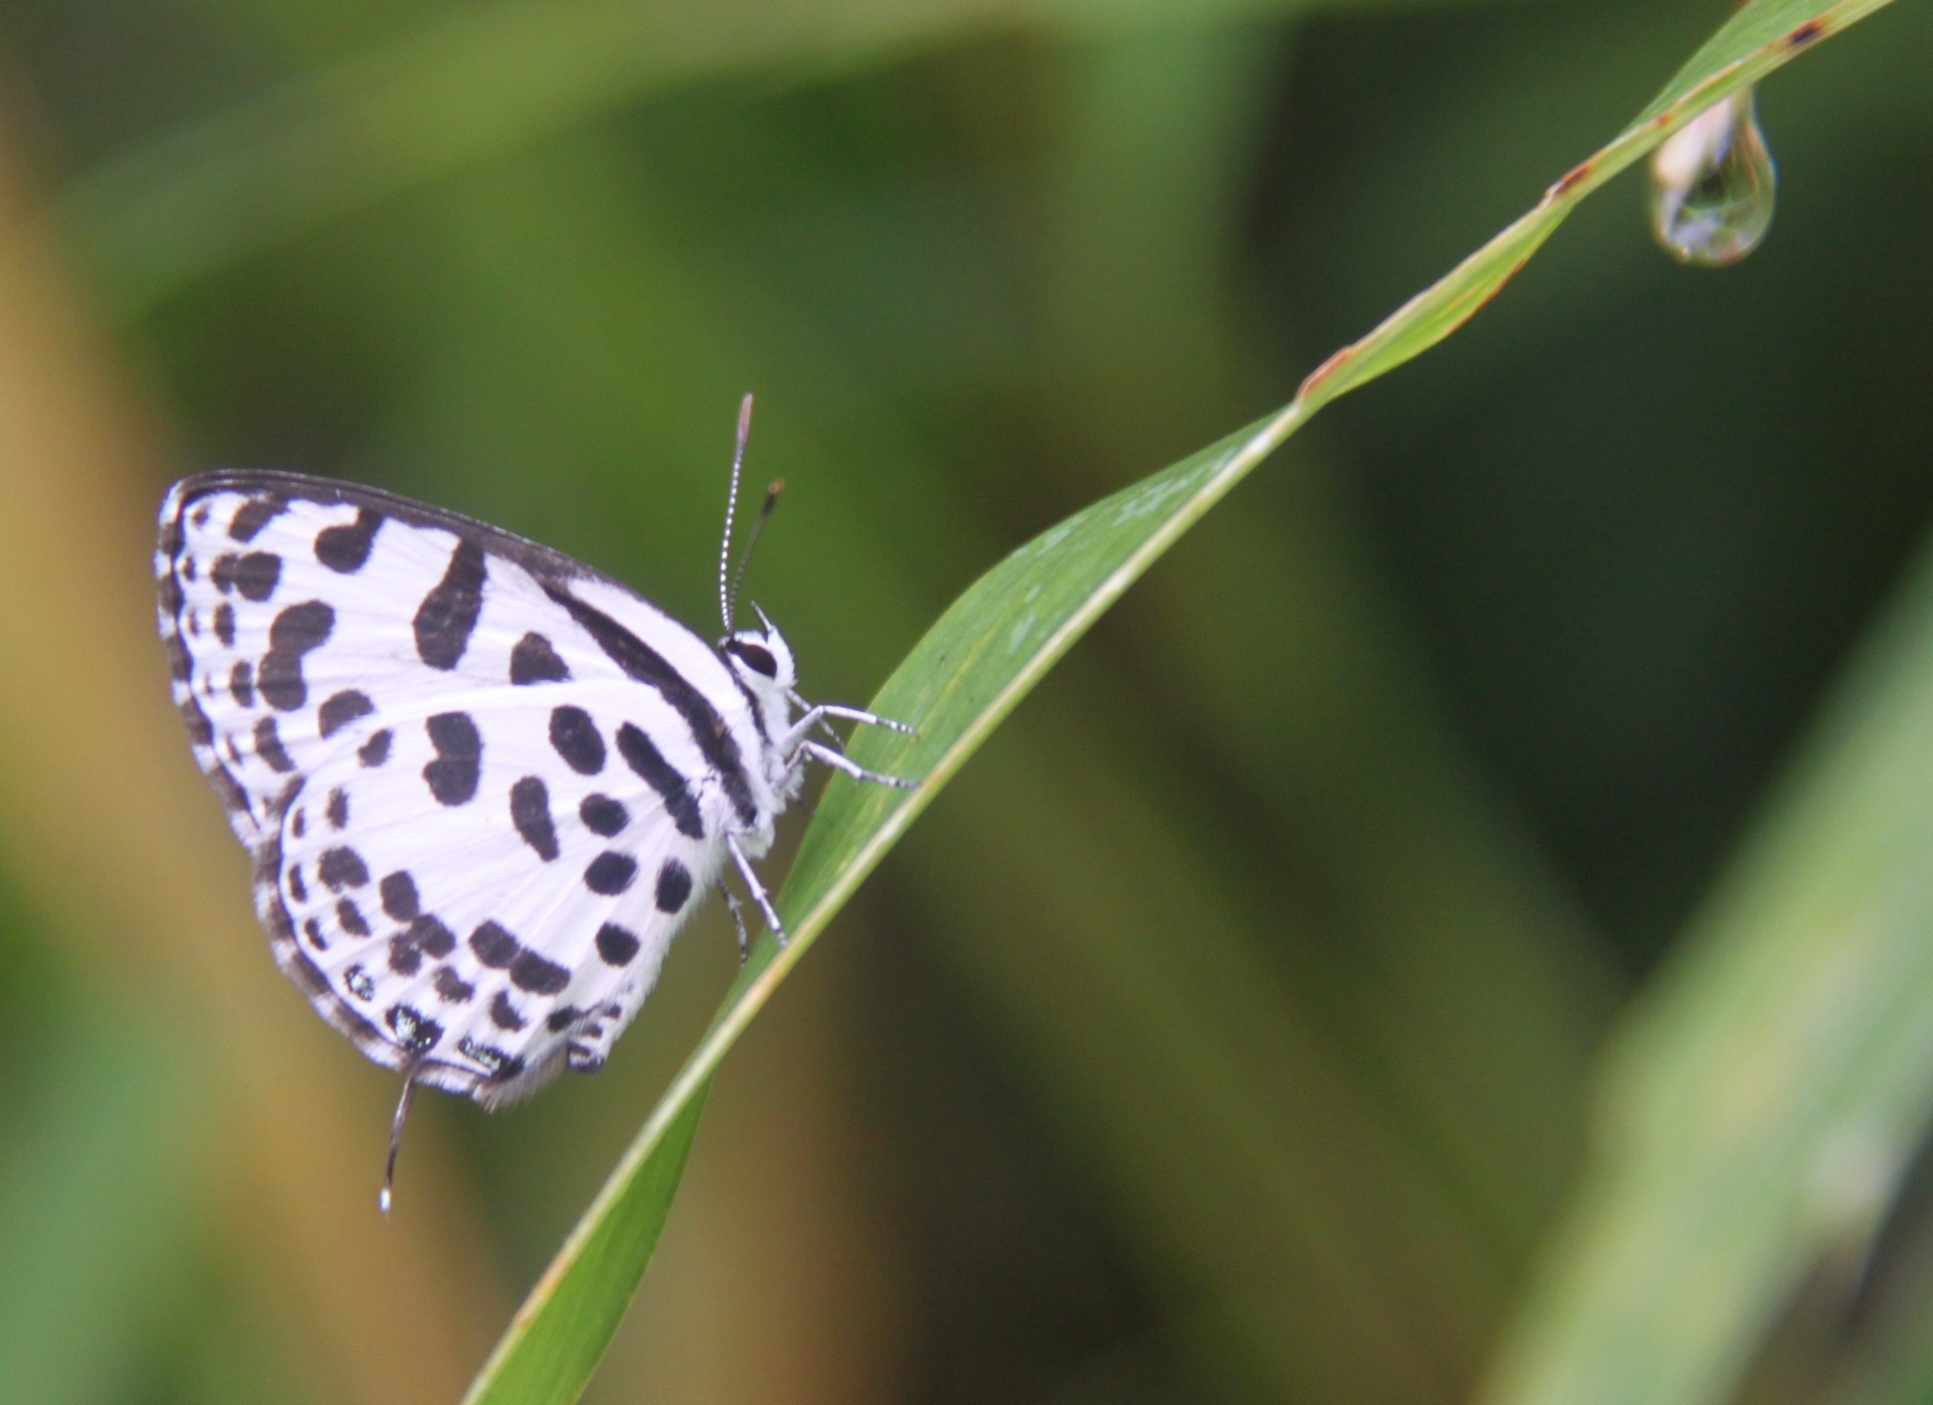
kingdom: Animalia
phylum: Arthropoda
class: Insecta
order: Lepidoptera
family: Lycaenidae
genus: Discolampa
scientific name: Discolampa ethion
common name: Banded blue pierrot
